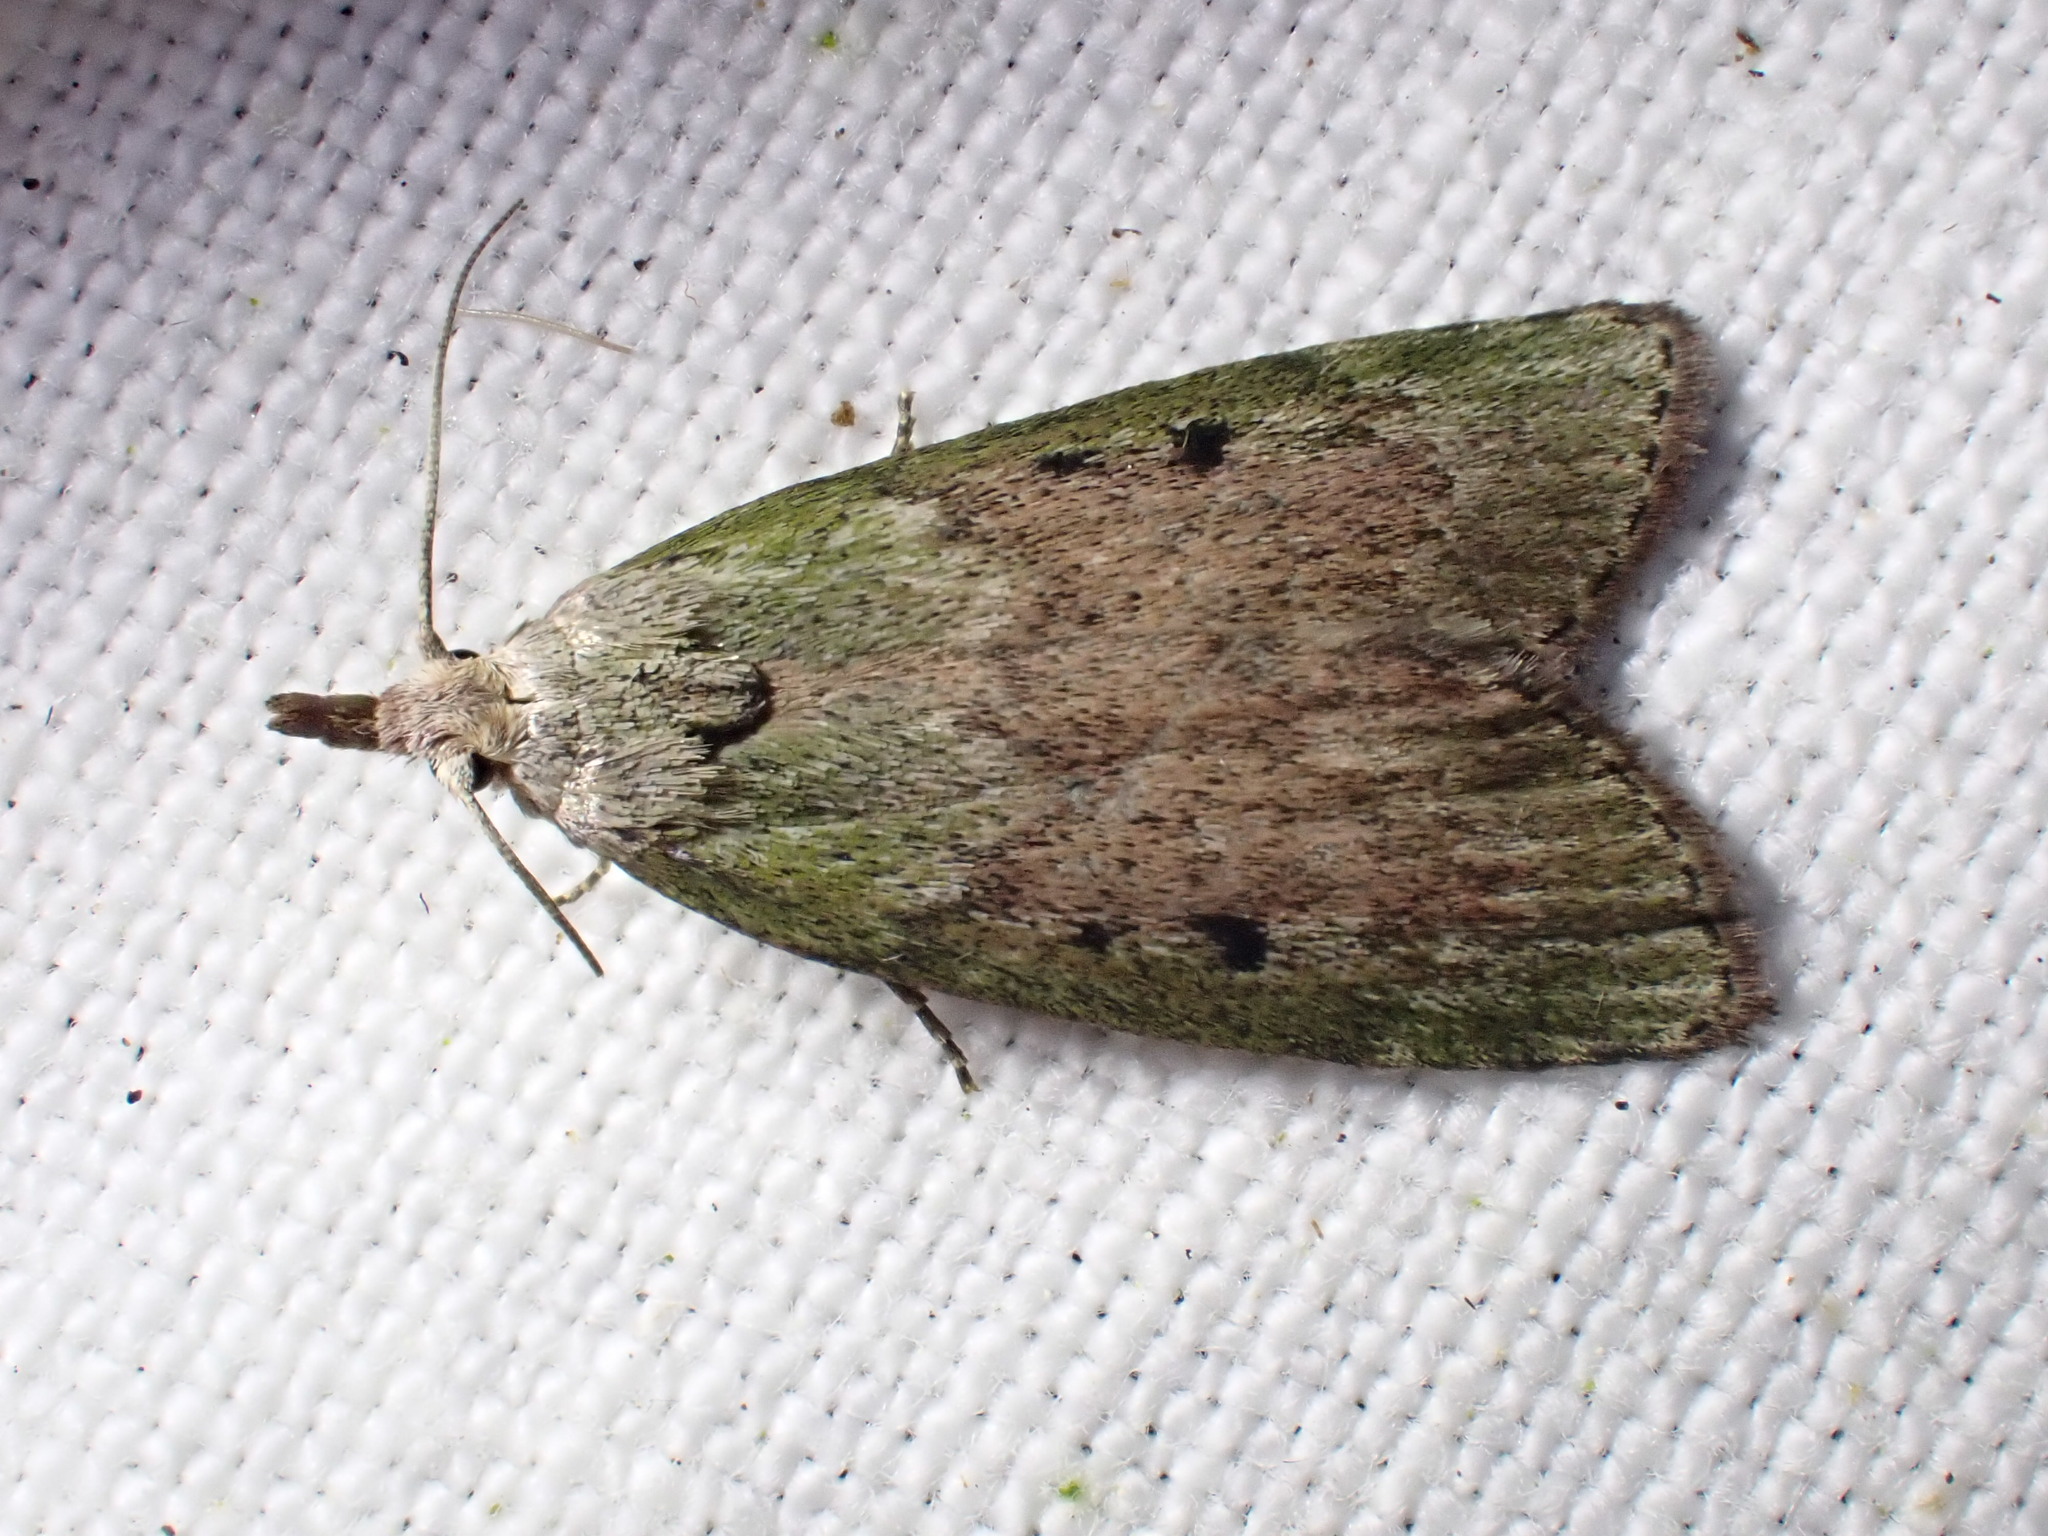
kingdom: Animalia
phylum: Arthropoda
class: Insecta
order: Lepidoptera
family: Pyralidae
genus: Aphomia
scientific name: Aphomia sociella
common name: Bee moth
